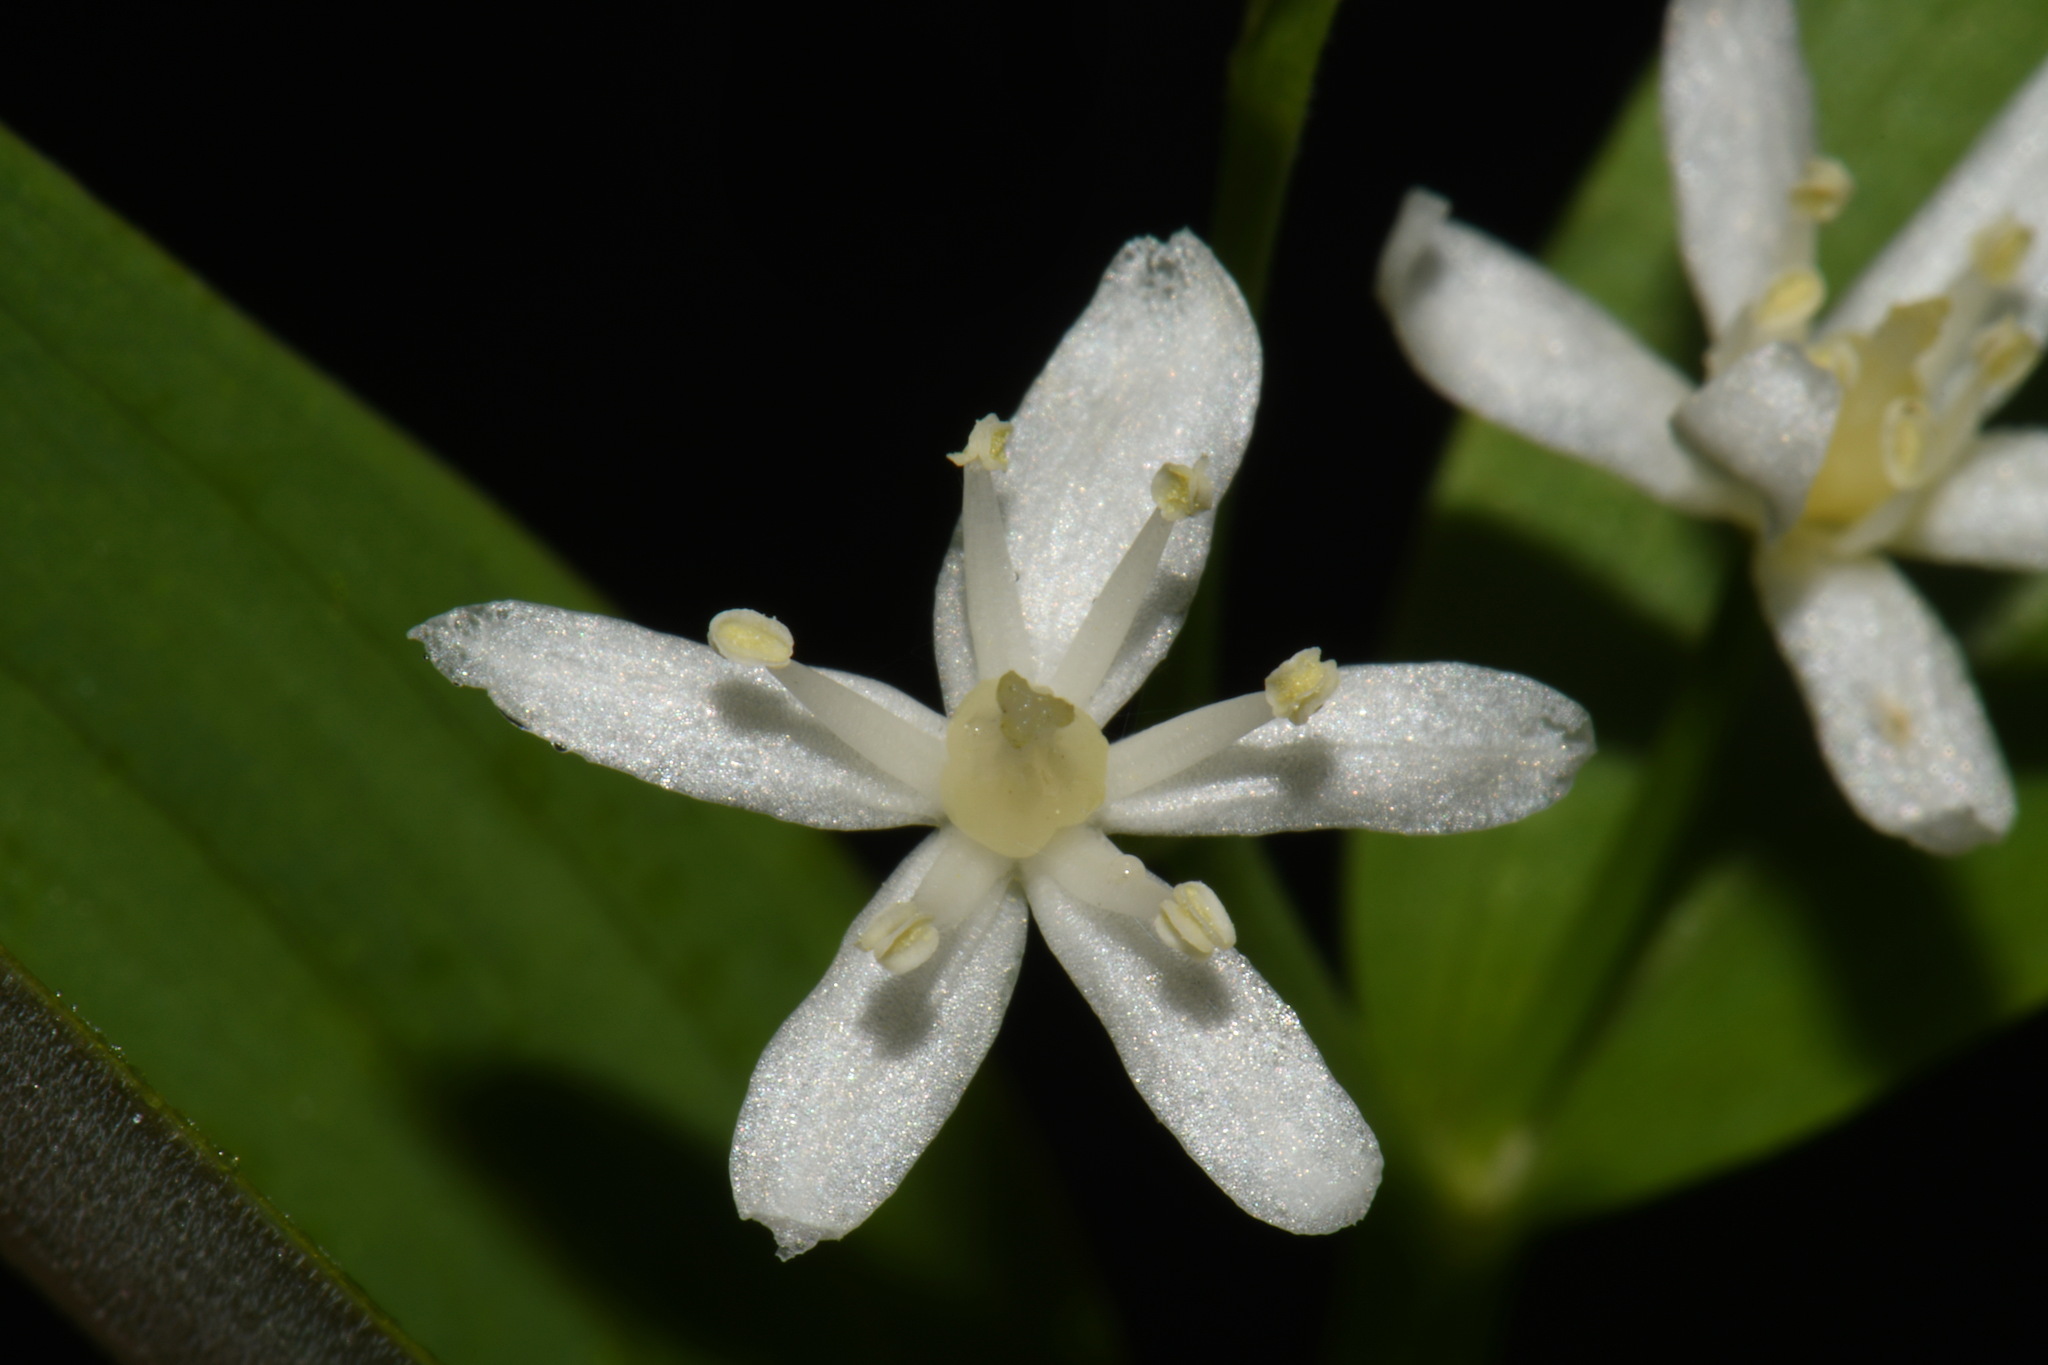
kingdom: Plantae
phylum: Tracheophyta
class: Liliopsida
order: Asparagales
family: Asparagaceae
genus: Maianthemum
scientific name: Maianthemum stellatum
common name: Little false solomon's seal
